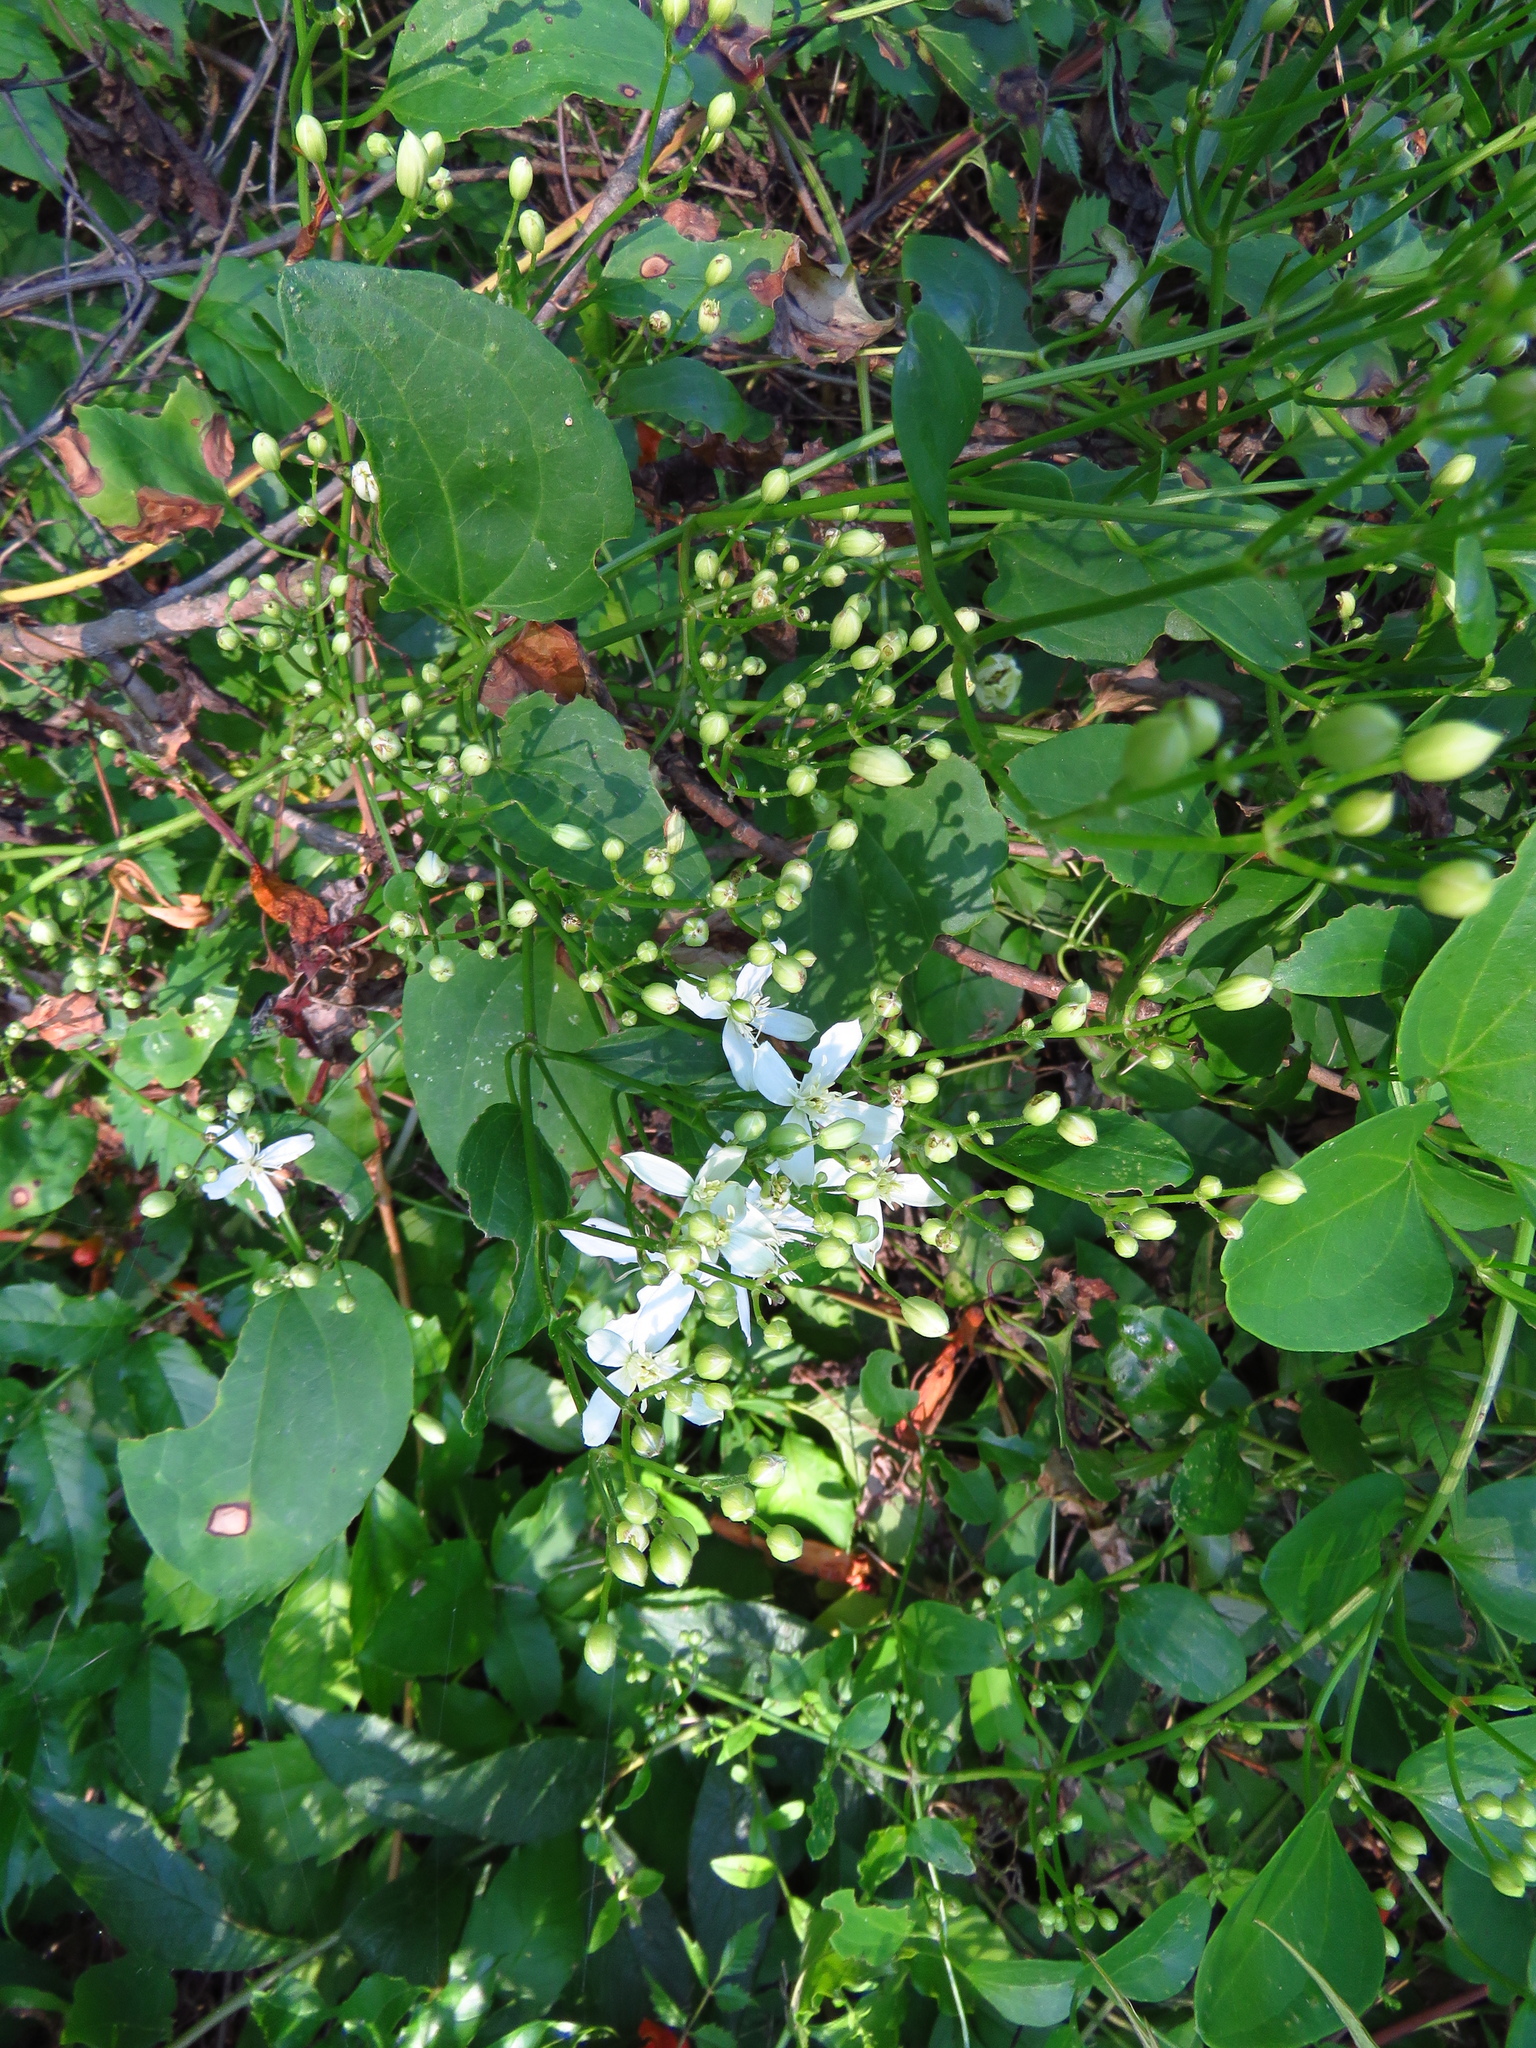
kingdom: Plantae
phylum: Tracheophyta
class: Magnoliopsida
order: Ranunculales
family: Ranunculaceae
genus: Clematis
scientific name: Clematis terniflora
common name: Sweet autumn clematis
